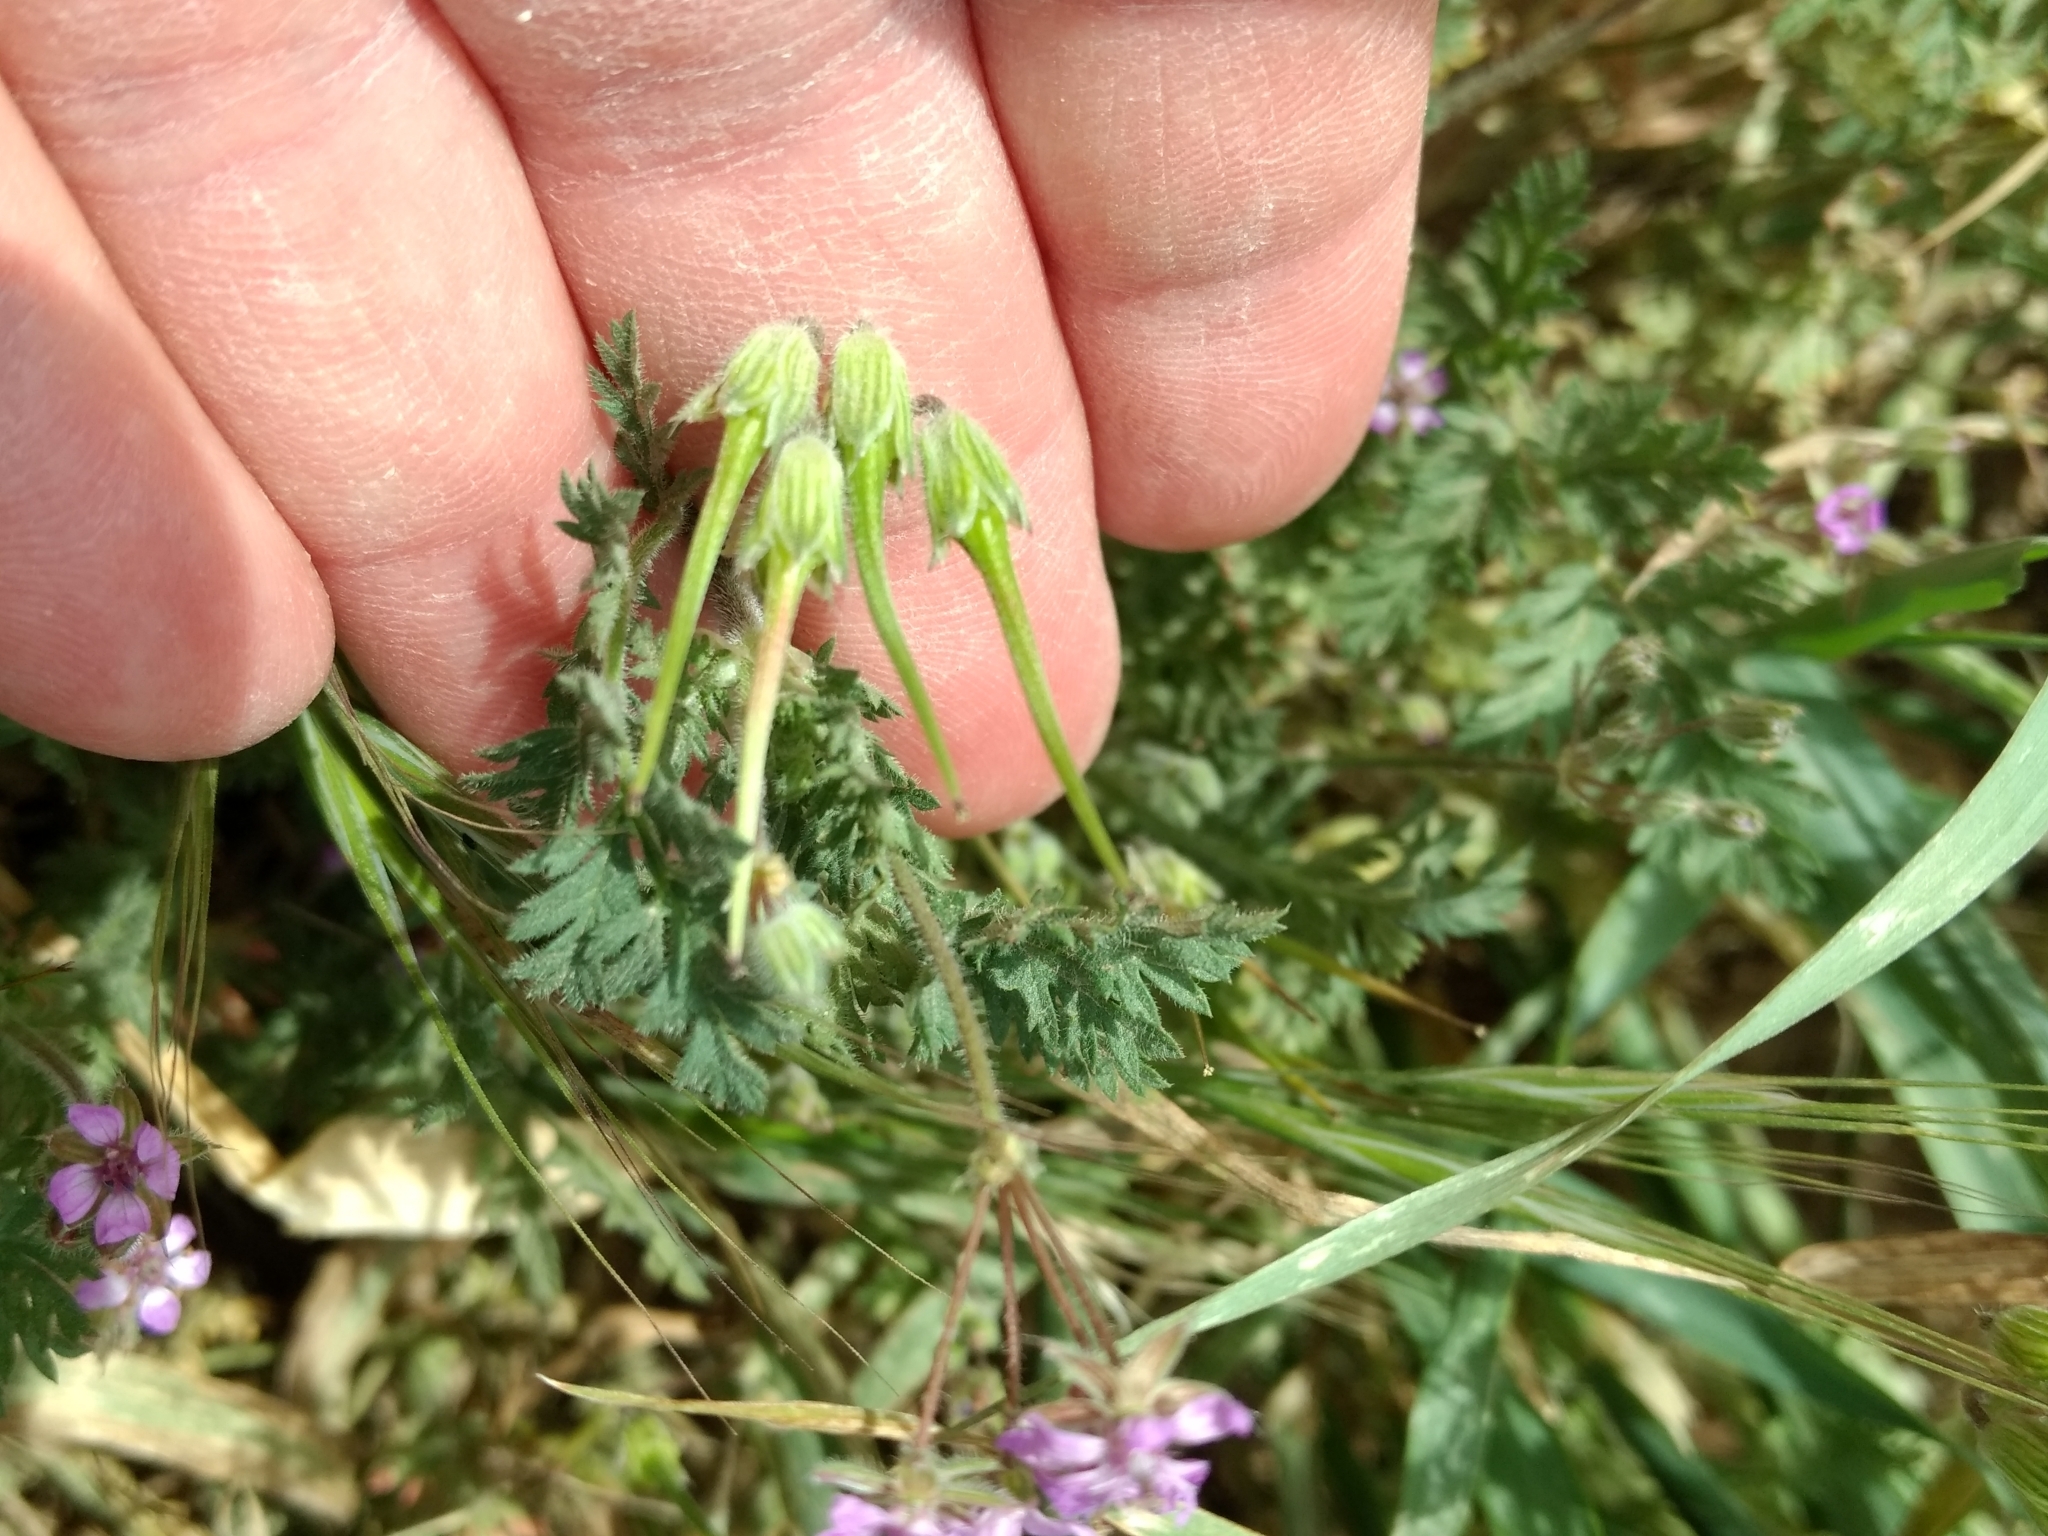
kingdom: Plantae
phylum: Tracheophyta
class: Magnoliopsida
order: Geraniales
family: Geraniaceae
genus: Erodium
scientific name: Erodium cicutarium
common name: Common stork's-bill
